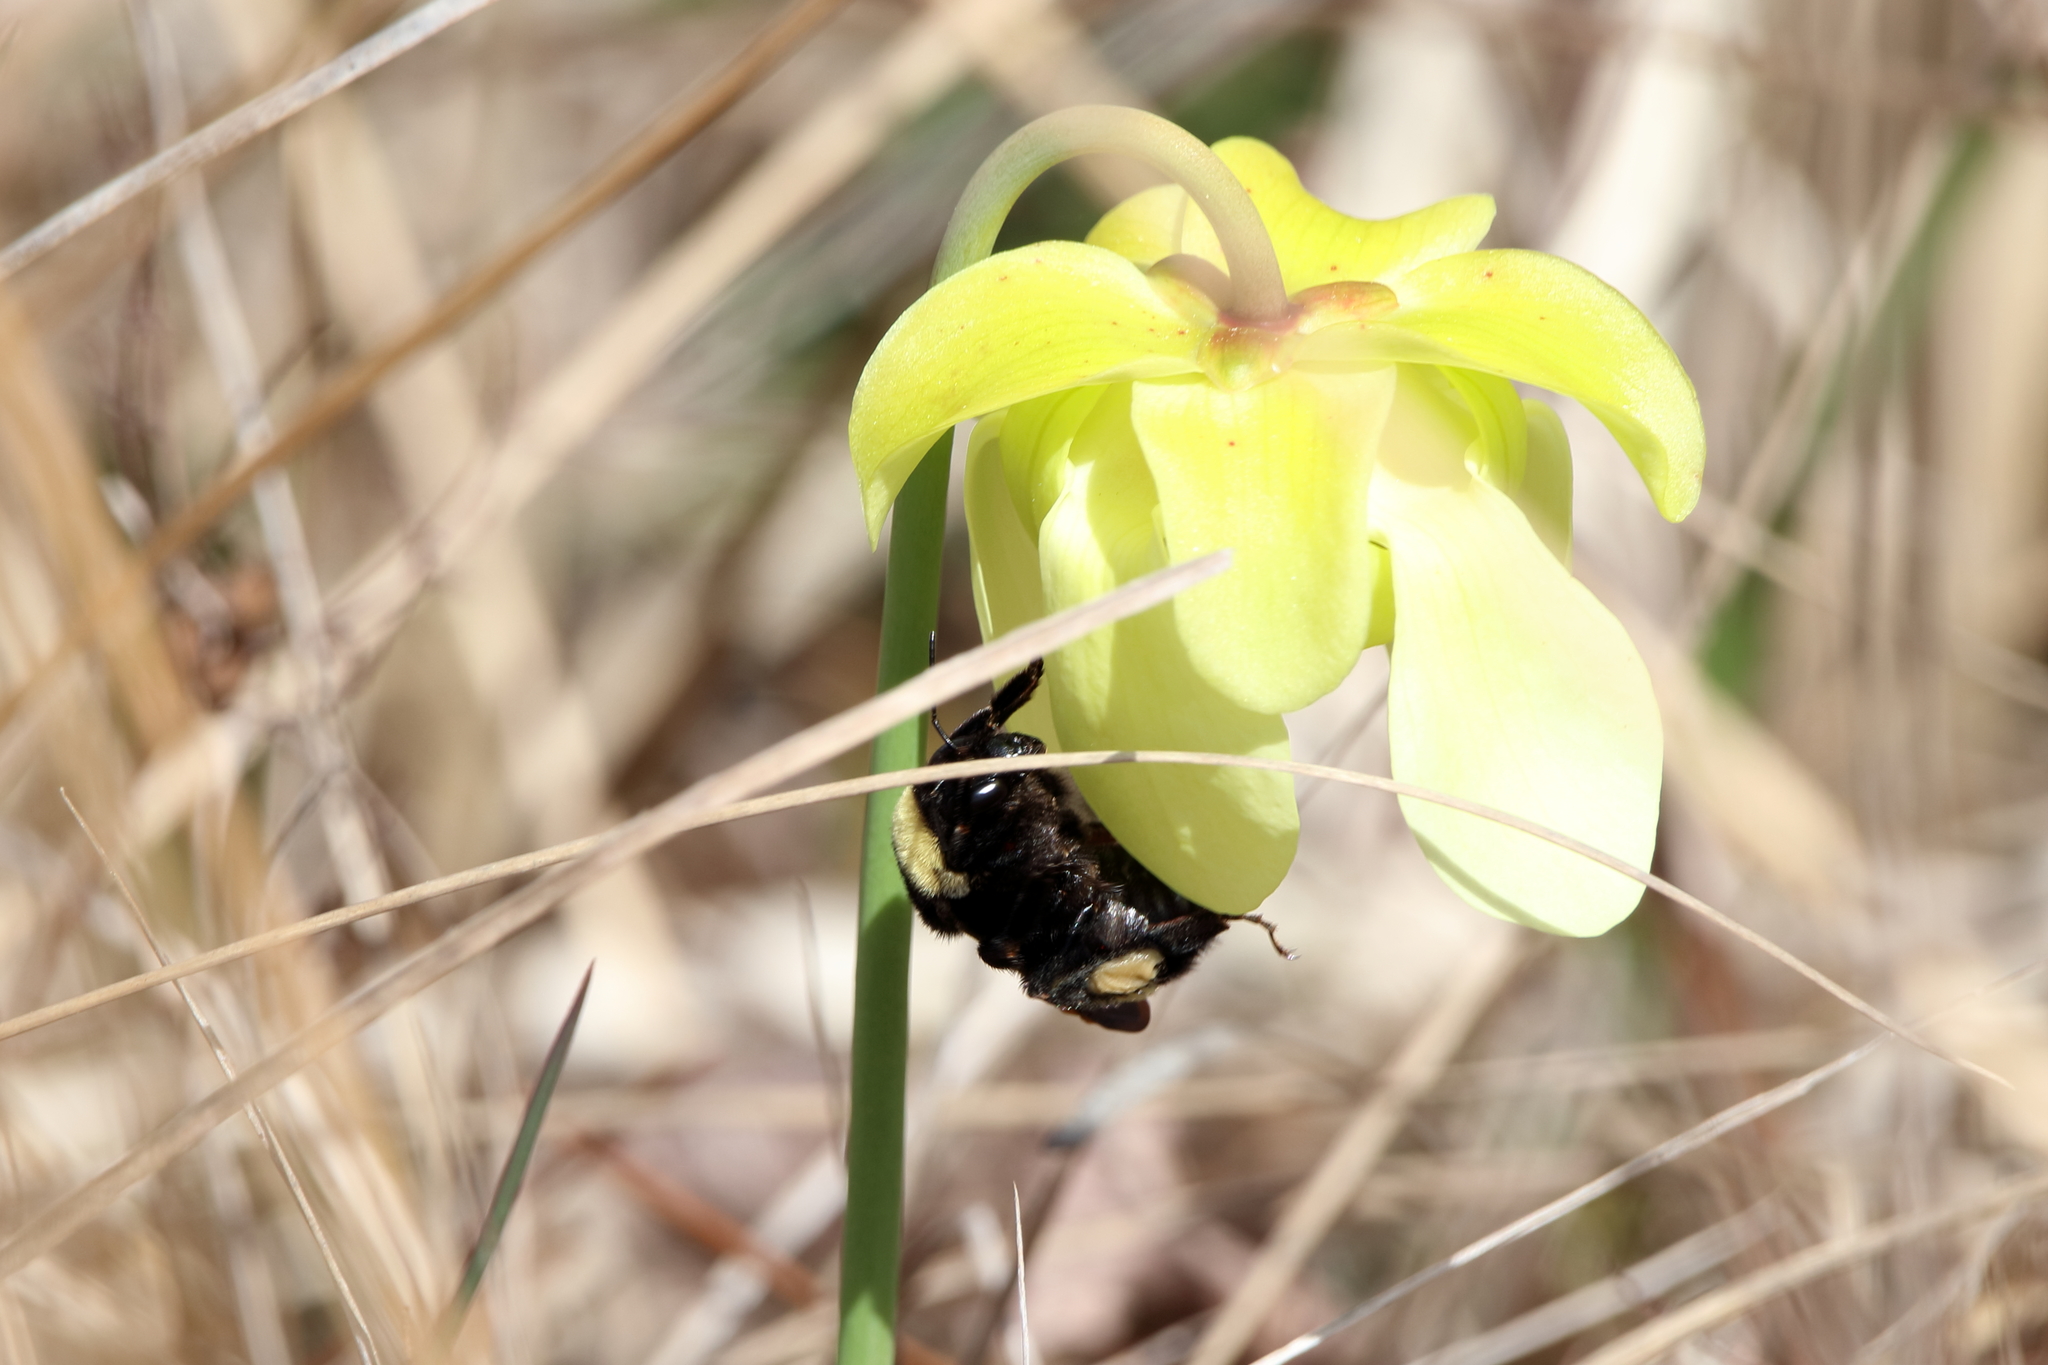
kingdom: Animalia
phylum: Arthropoda
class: Insecta
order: Hymenoptera
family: Apidae
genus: Bombus
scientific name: Bombus pensylvanicus
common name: Bumble bee
